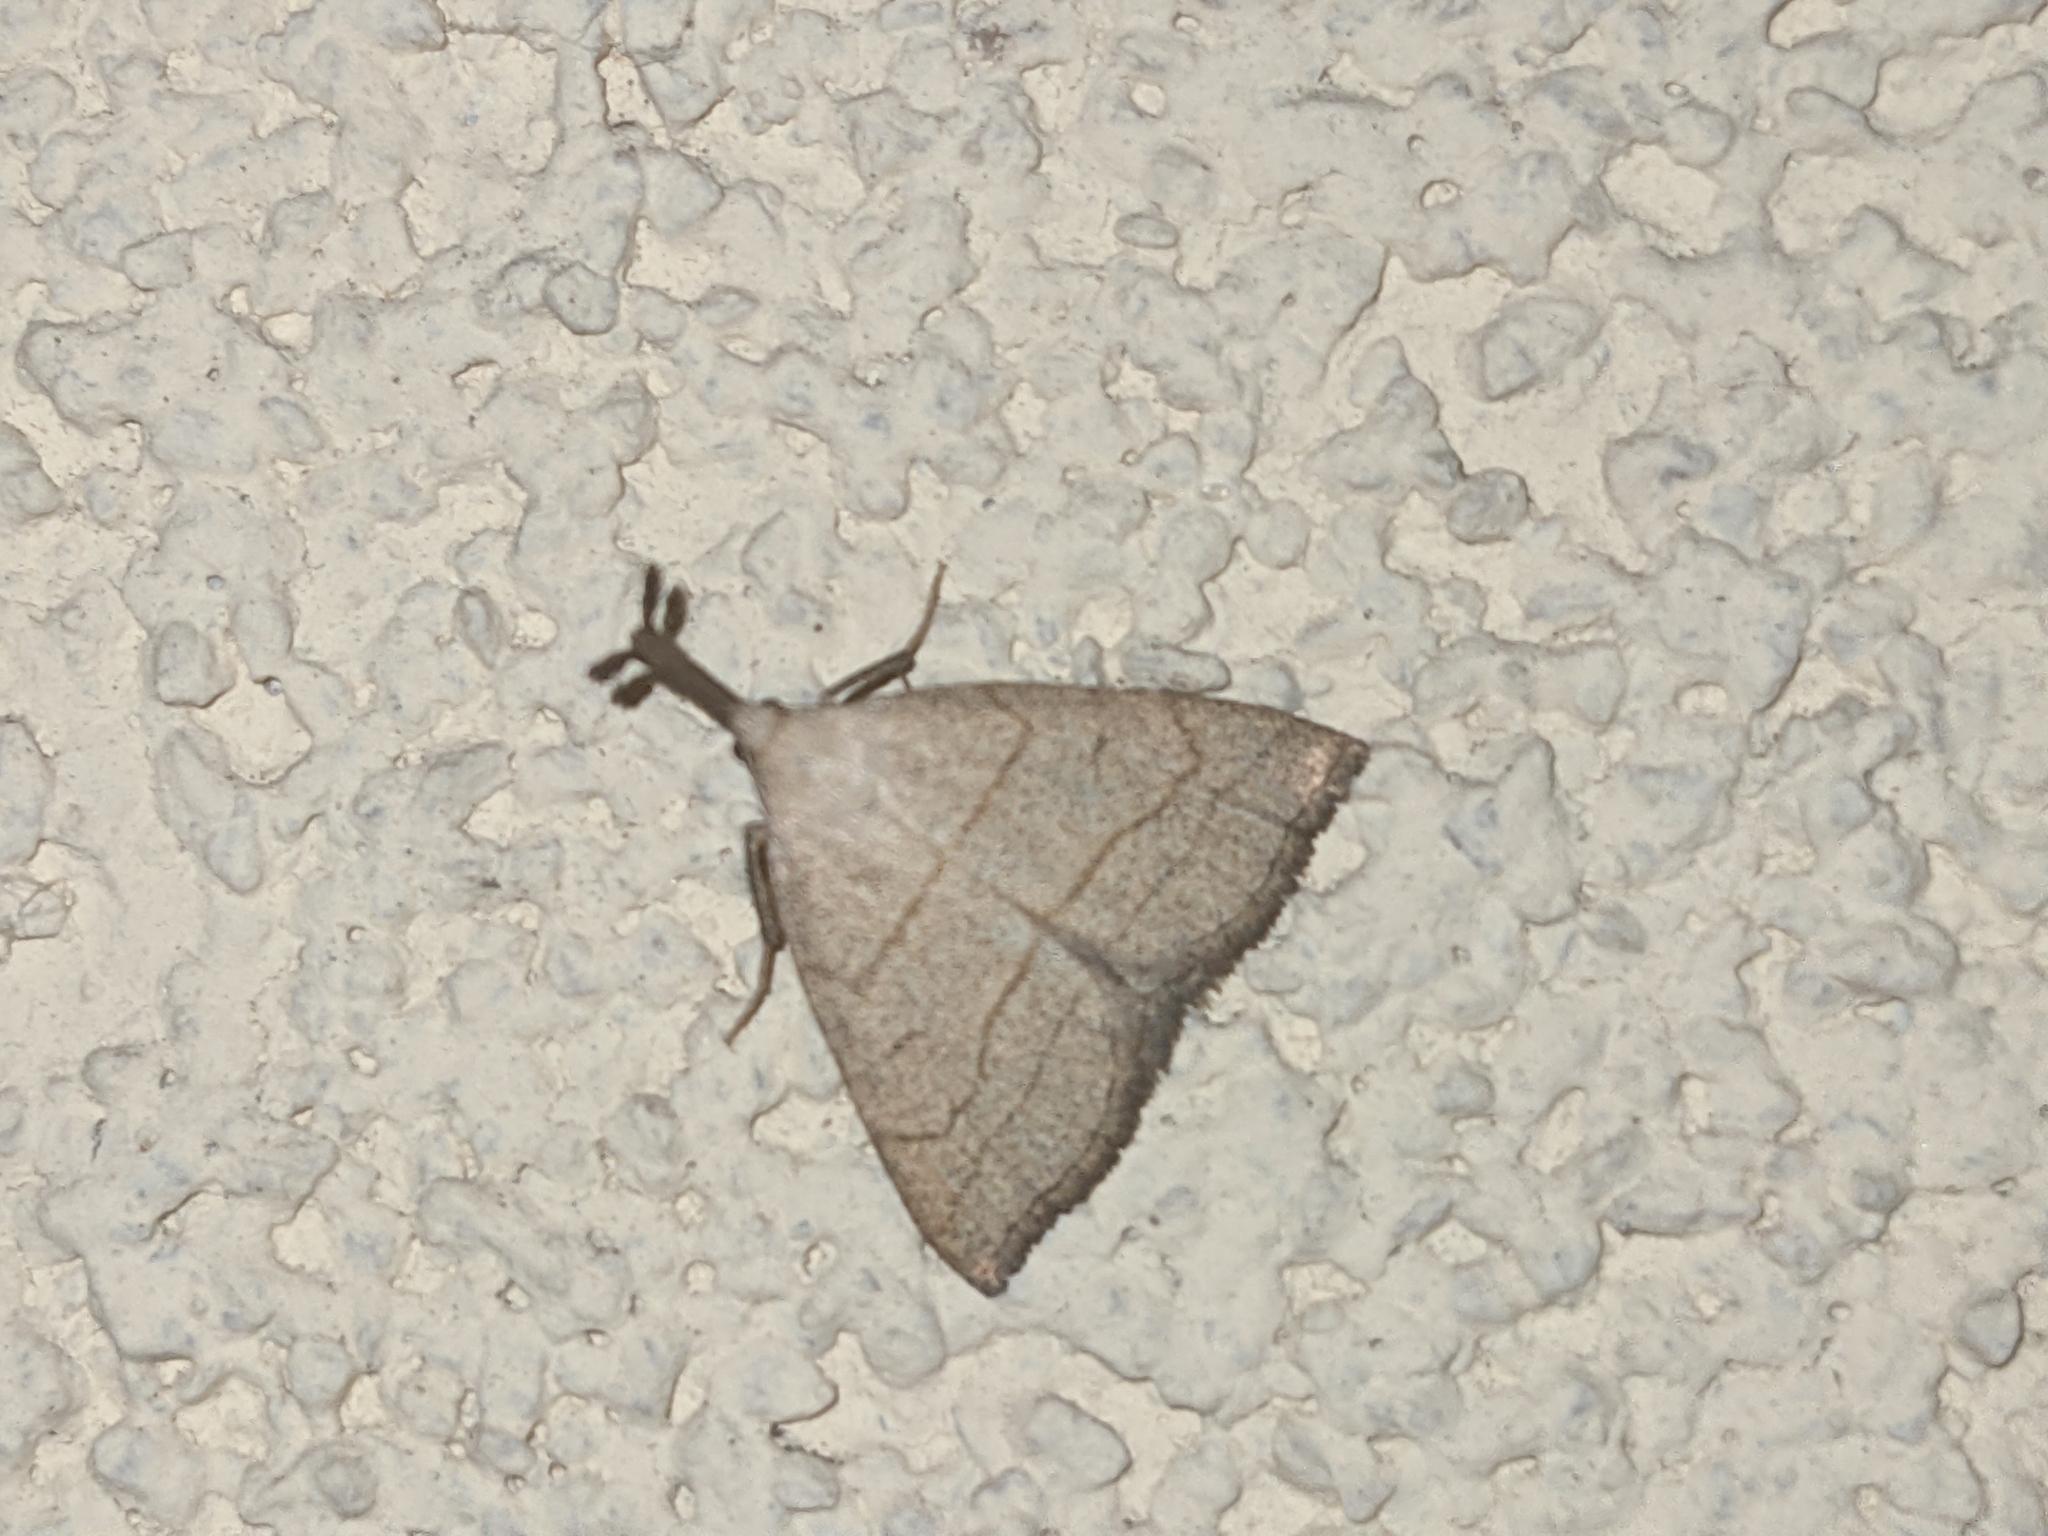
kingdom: Animalia
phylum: Arthropoda
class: Insecta
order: Lepidoptera
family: Erebidae
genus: Polypogon
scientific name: Polypogon tentacularia
